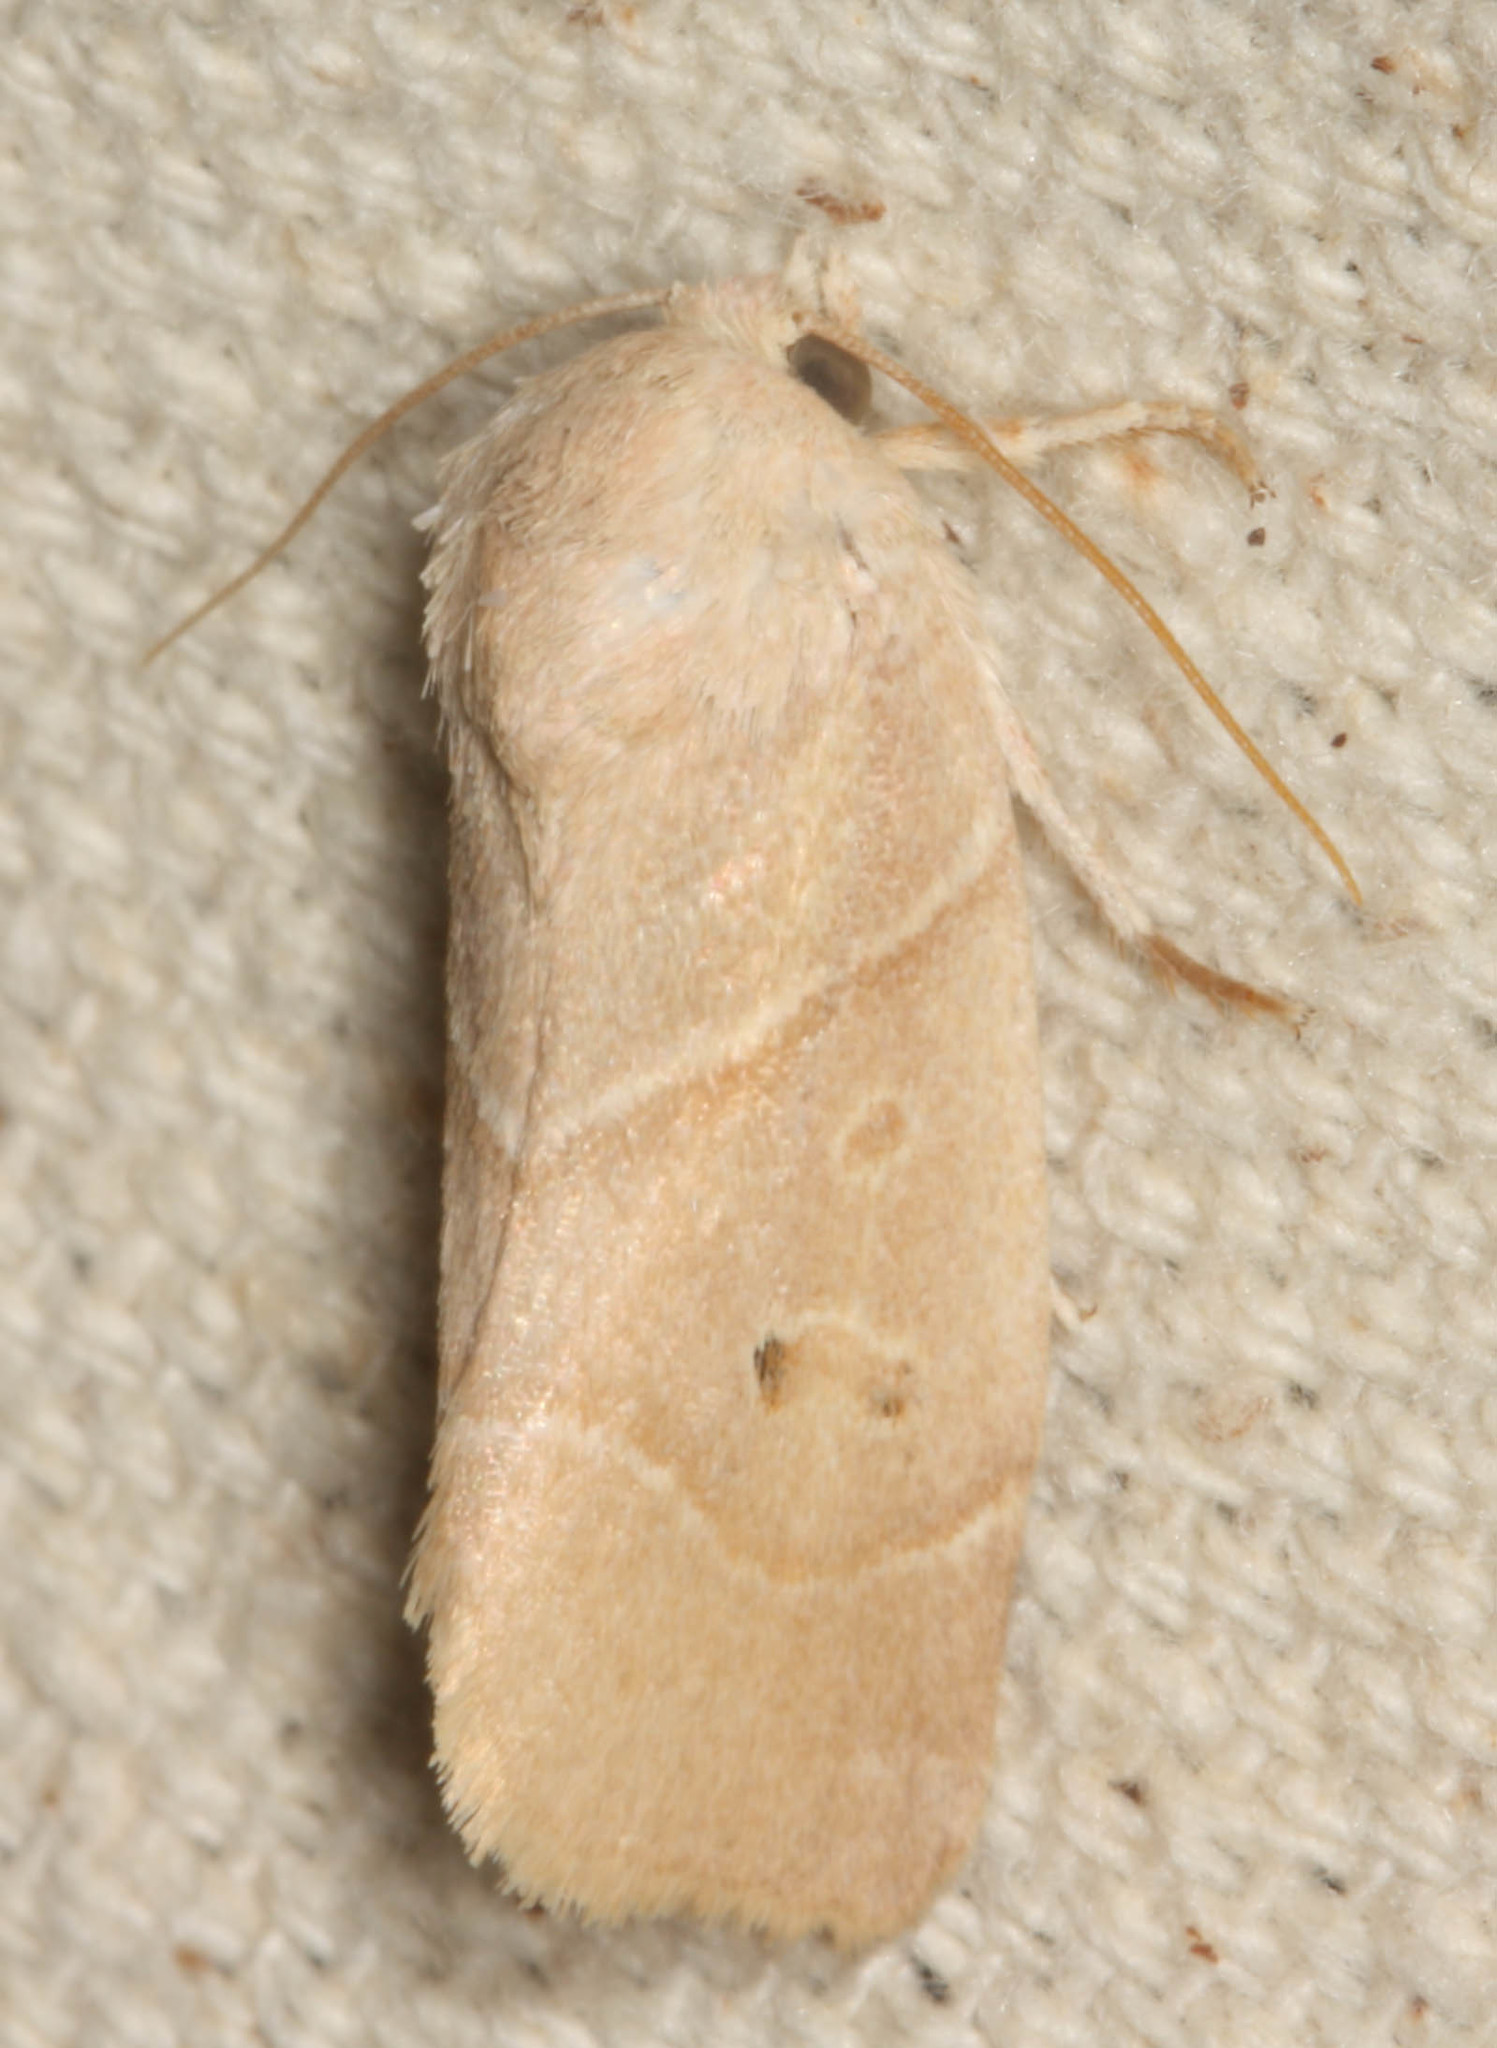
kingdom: Animalia
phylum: Arthropoda
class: Insecta
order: Lepidoptera
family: Noctuidae
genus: Cosmia
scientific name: Cosmia calami
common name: American dun-bar moth
